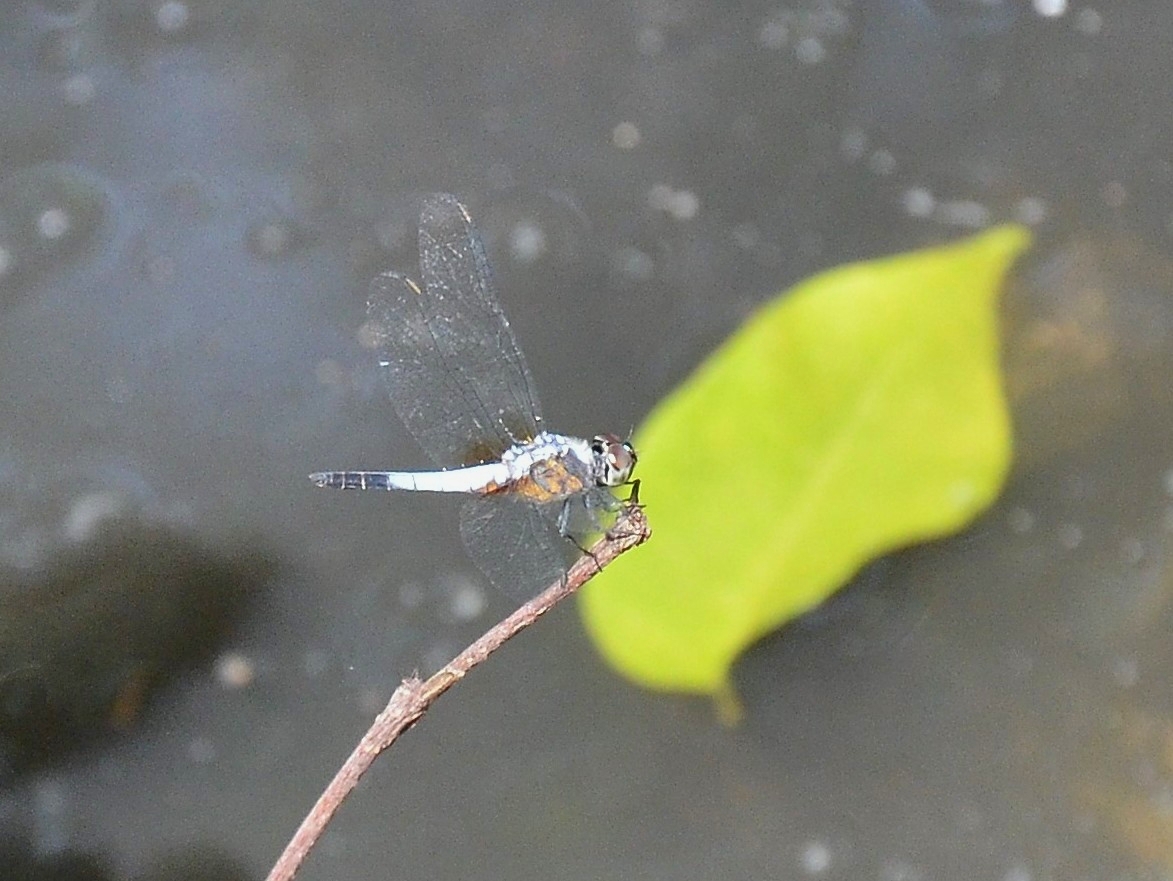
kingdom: Animalia
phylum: Arthropoda
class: Insecta
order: Odonata
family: Libellulidae
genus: Brachydiplax
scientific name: Brachydiplax chalybea
